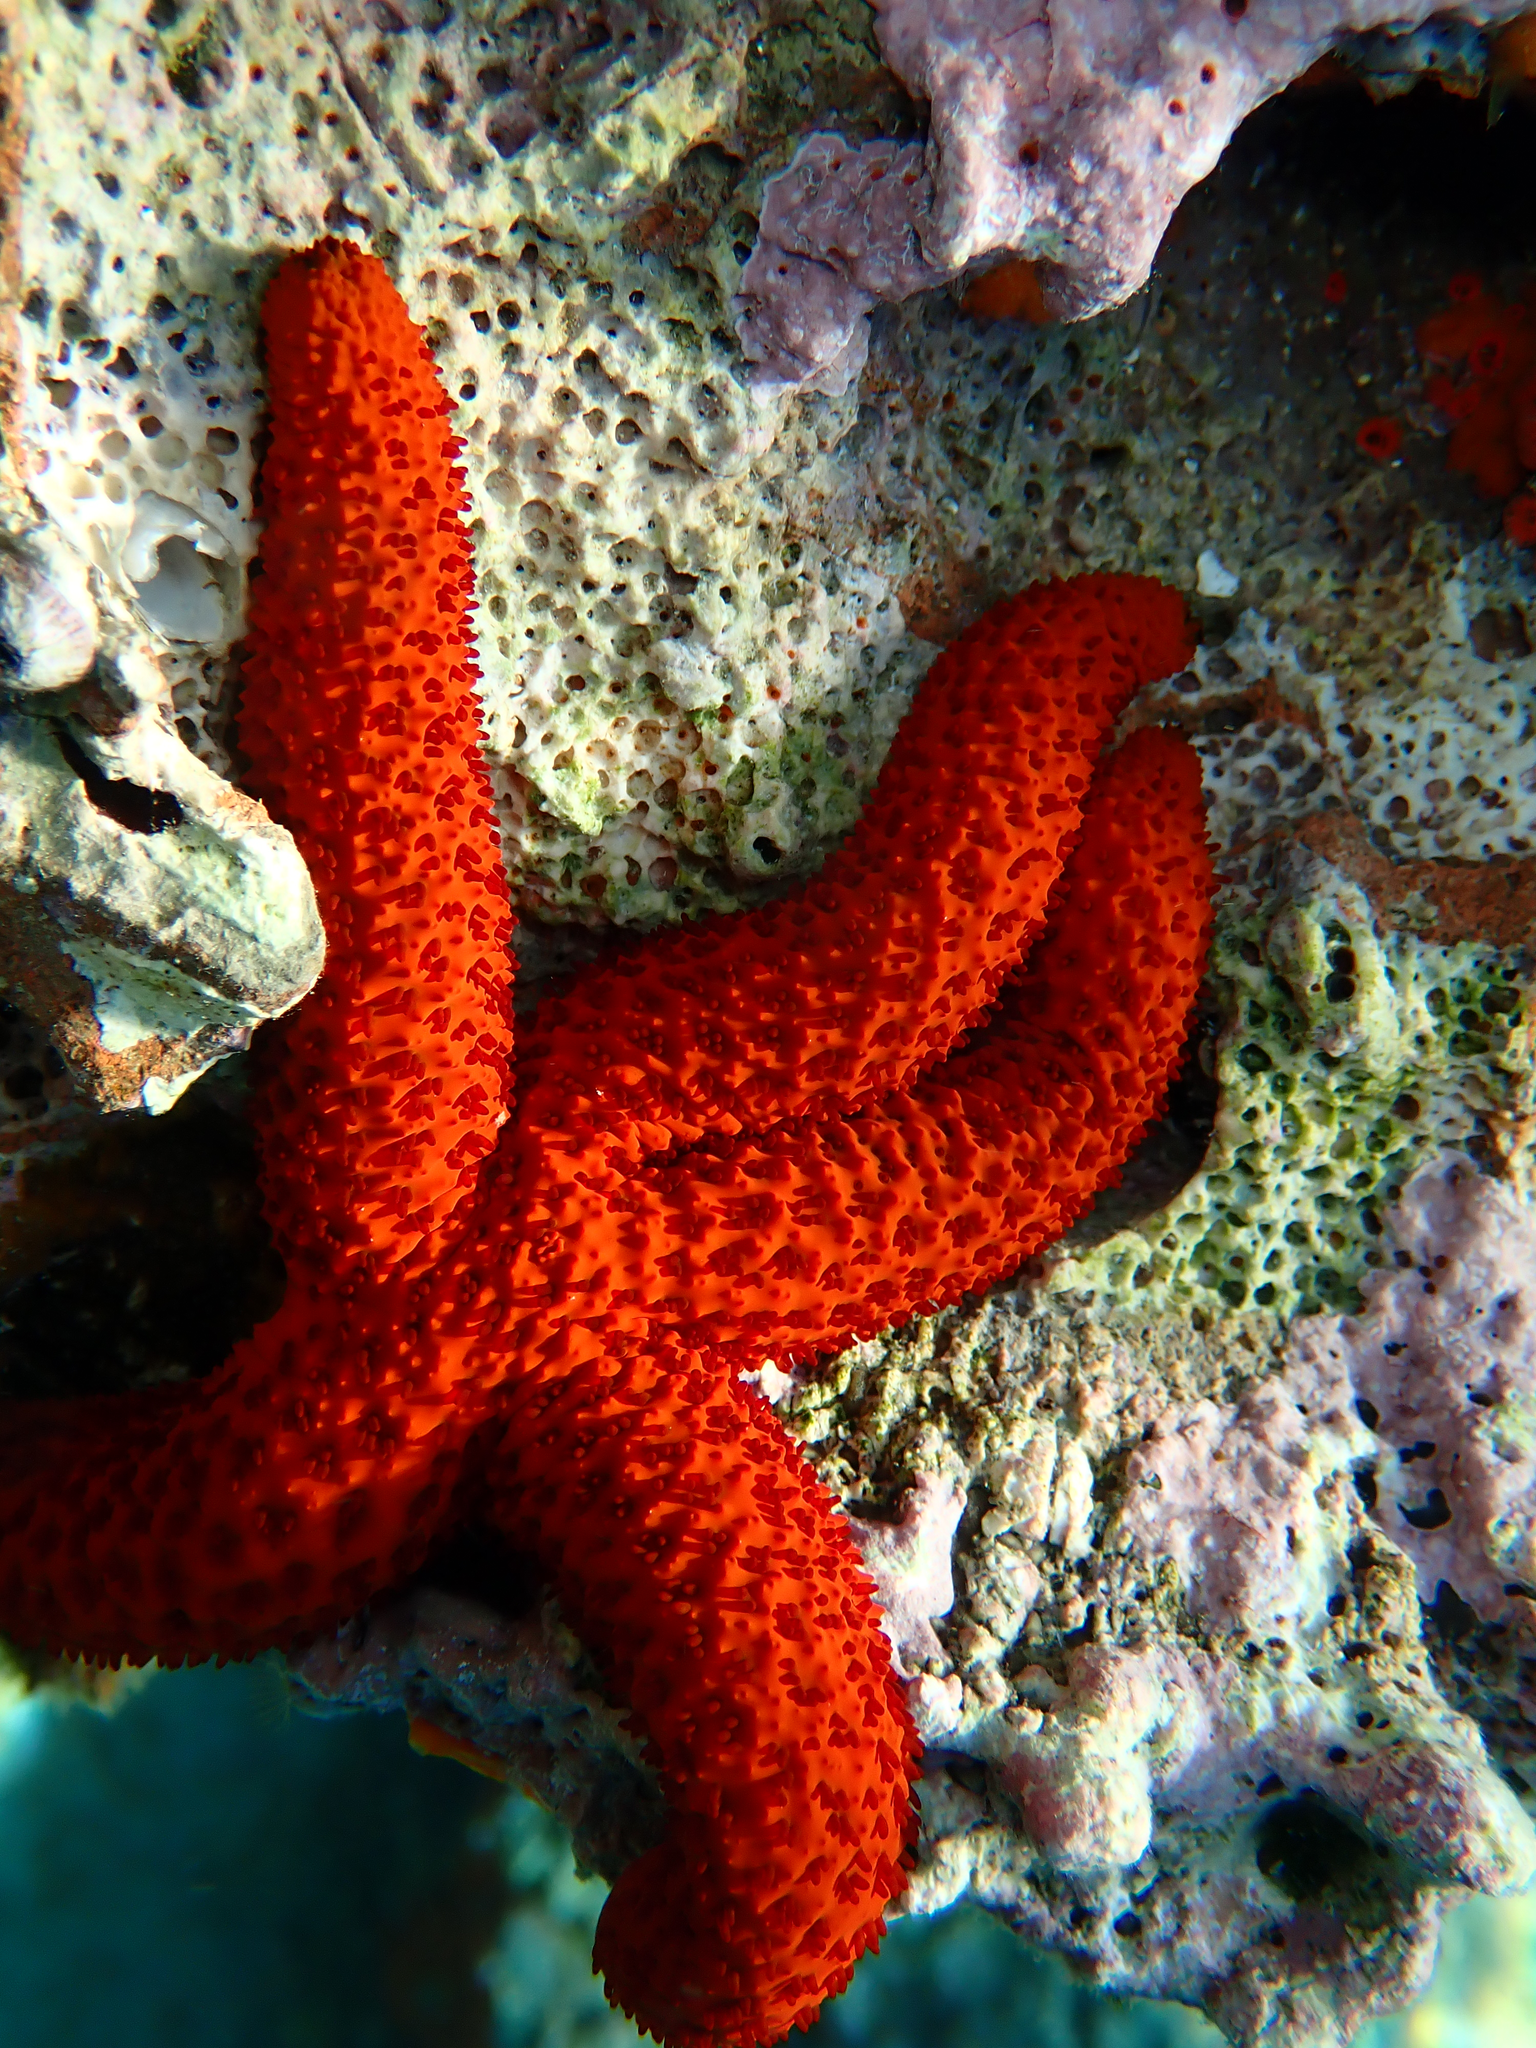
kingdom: Animalia
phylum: Echinodermata
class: Asteroidea
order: Spinulosida
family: Echinasteridae
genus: Echinaster
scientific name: Echinaster sepositus
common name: Red starfish
